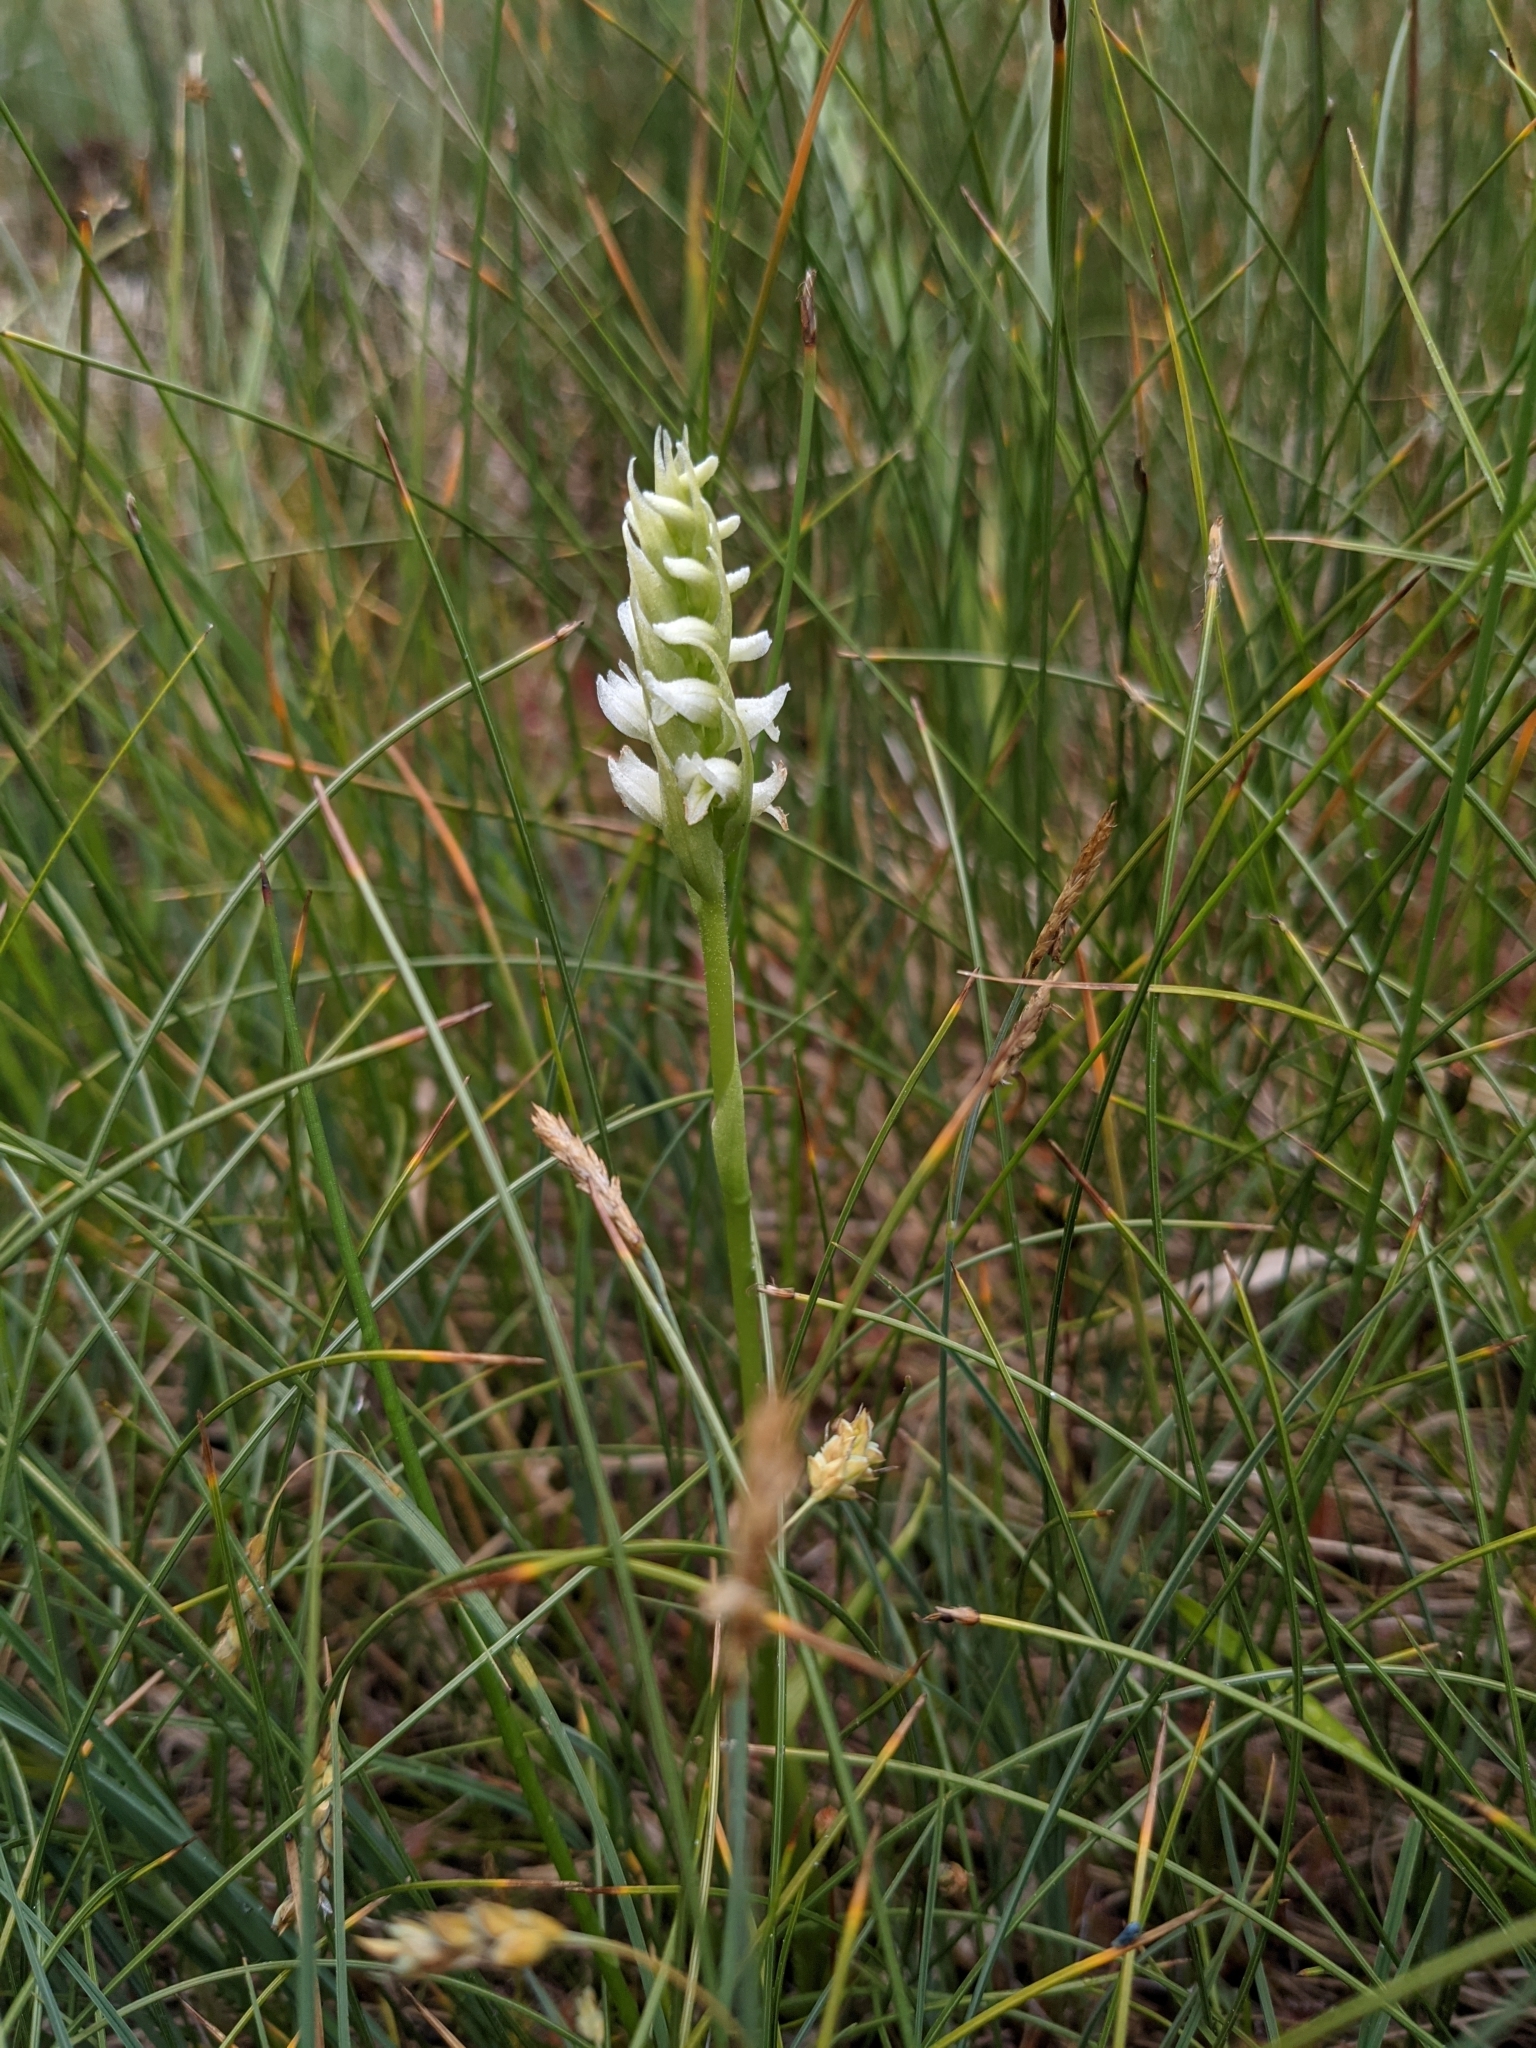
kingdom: Plantae
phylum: Tracheophyta
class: Liliopsida
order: Asparagales
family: Orchidaceae
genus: Spiranthes
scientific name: Spiranthes romanzoffiana
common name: Irish lady's-tresses
